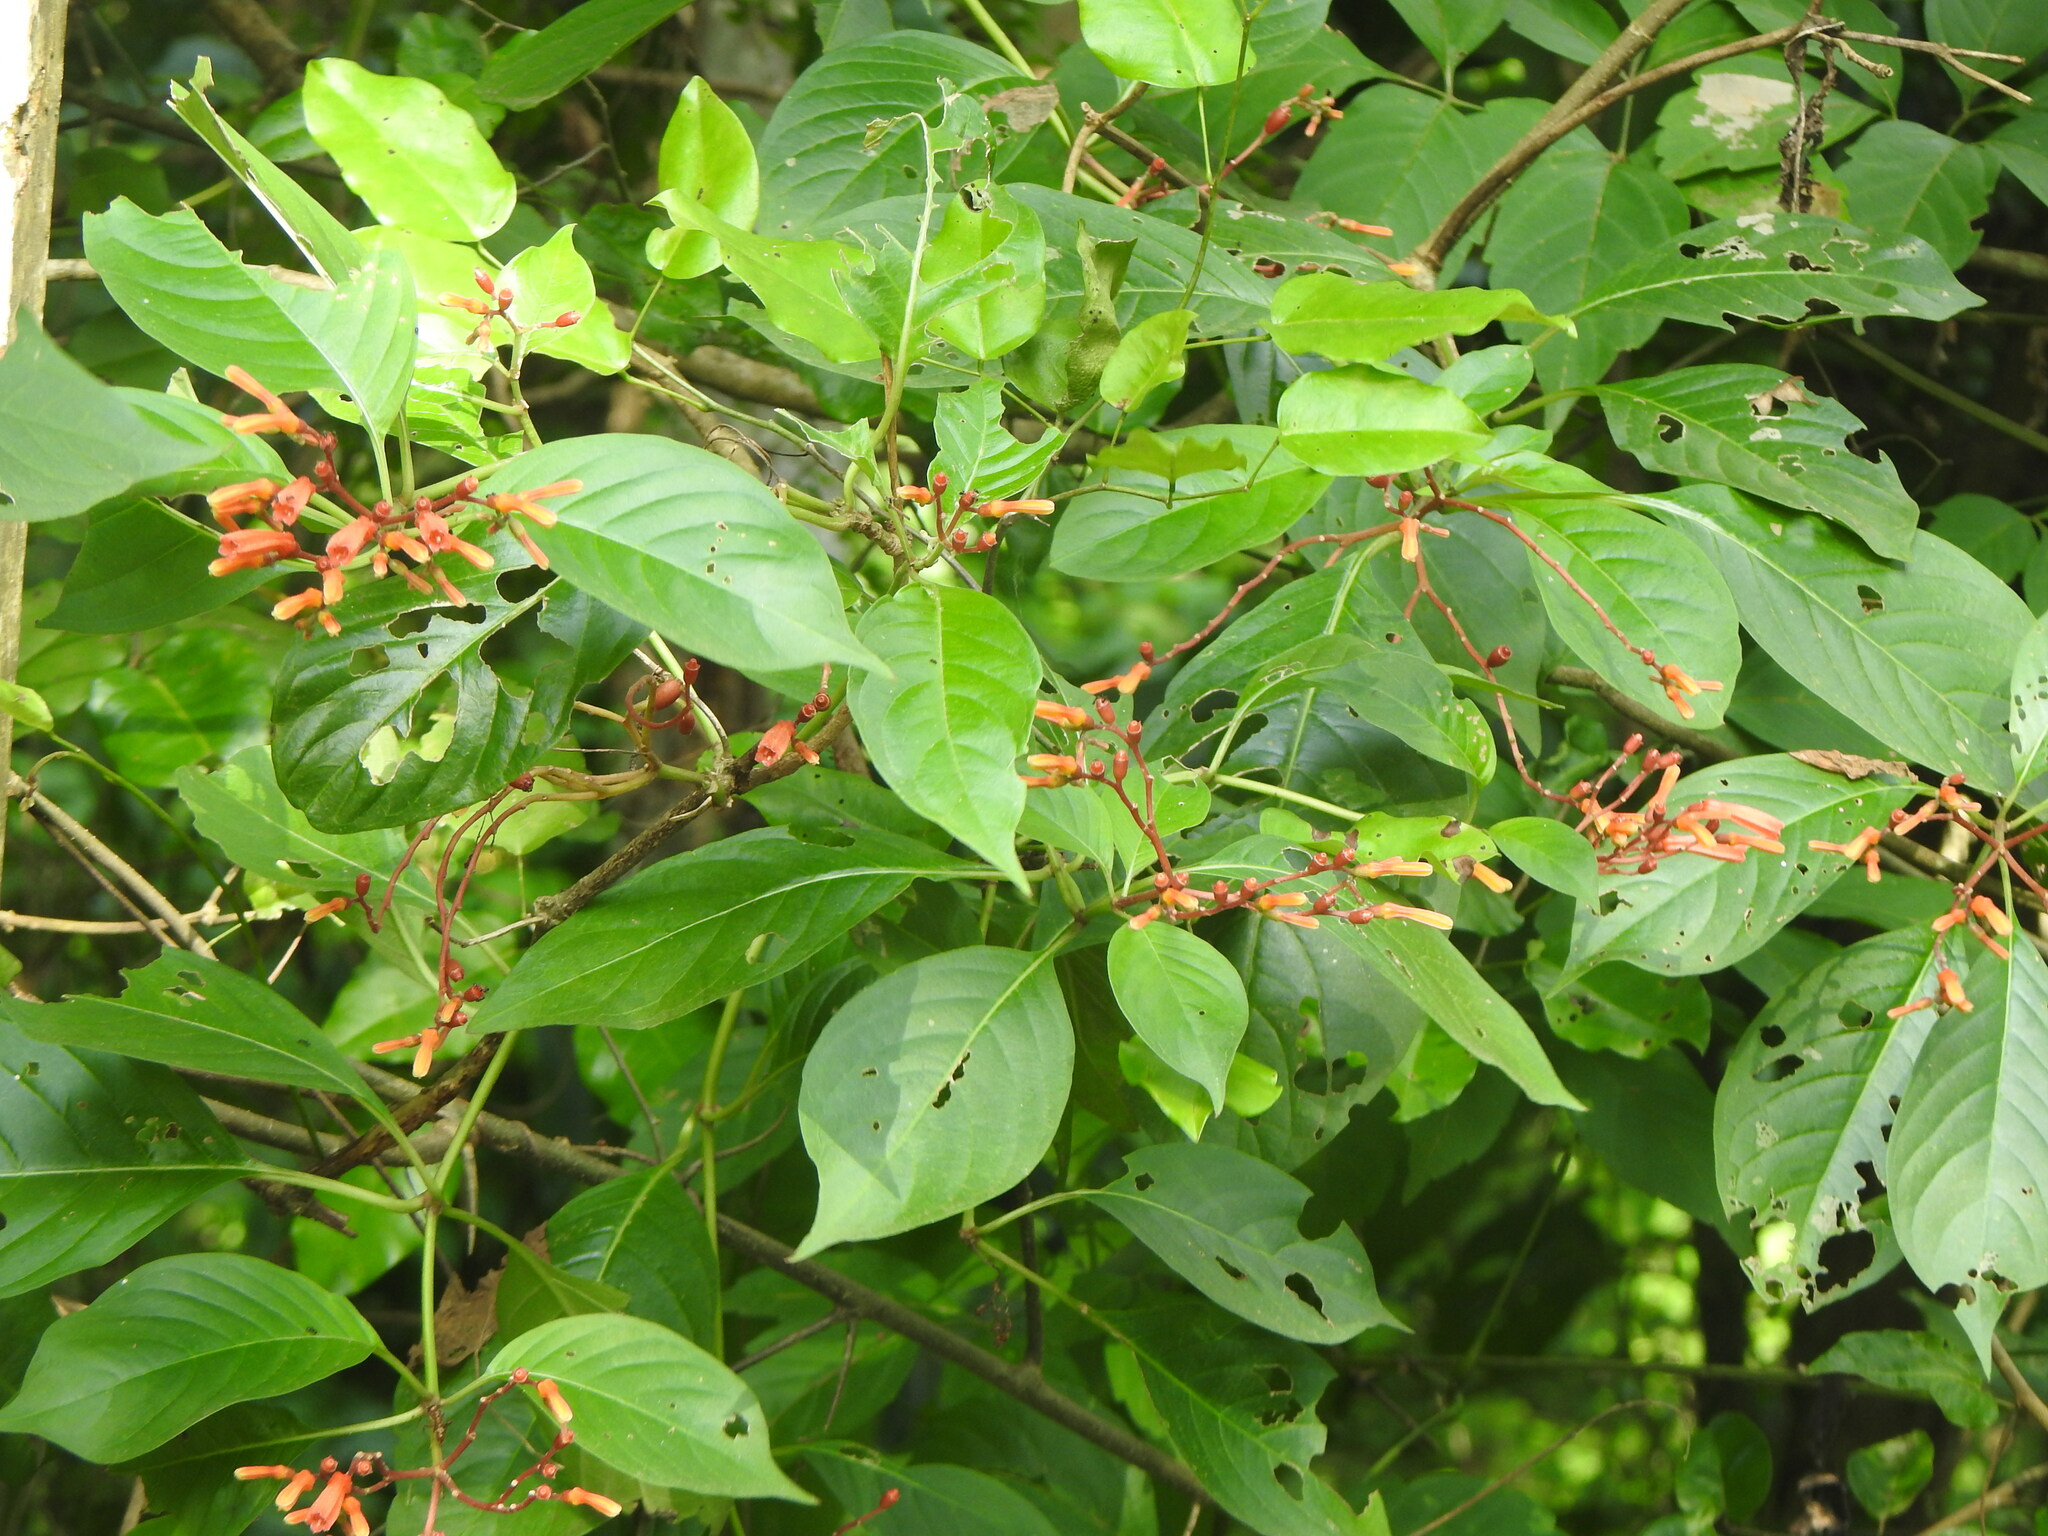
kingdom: Plantae
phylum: Tracheophyta
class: Magnoliopsida
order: Gentianales
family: Rubiaceae
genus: Hamelia
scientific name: Hamelia patens
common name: Redhead
